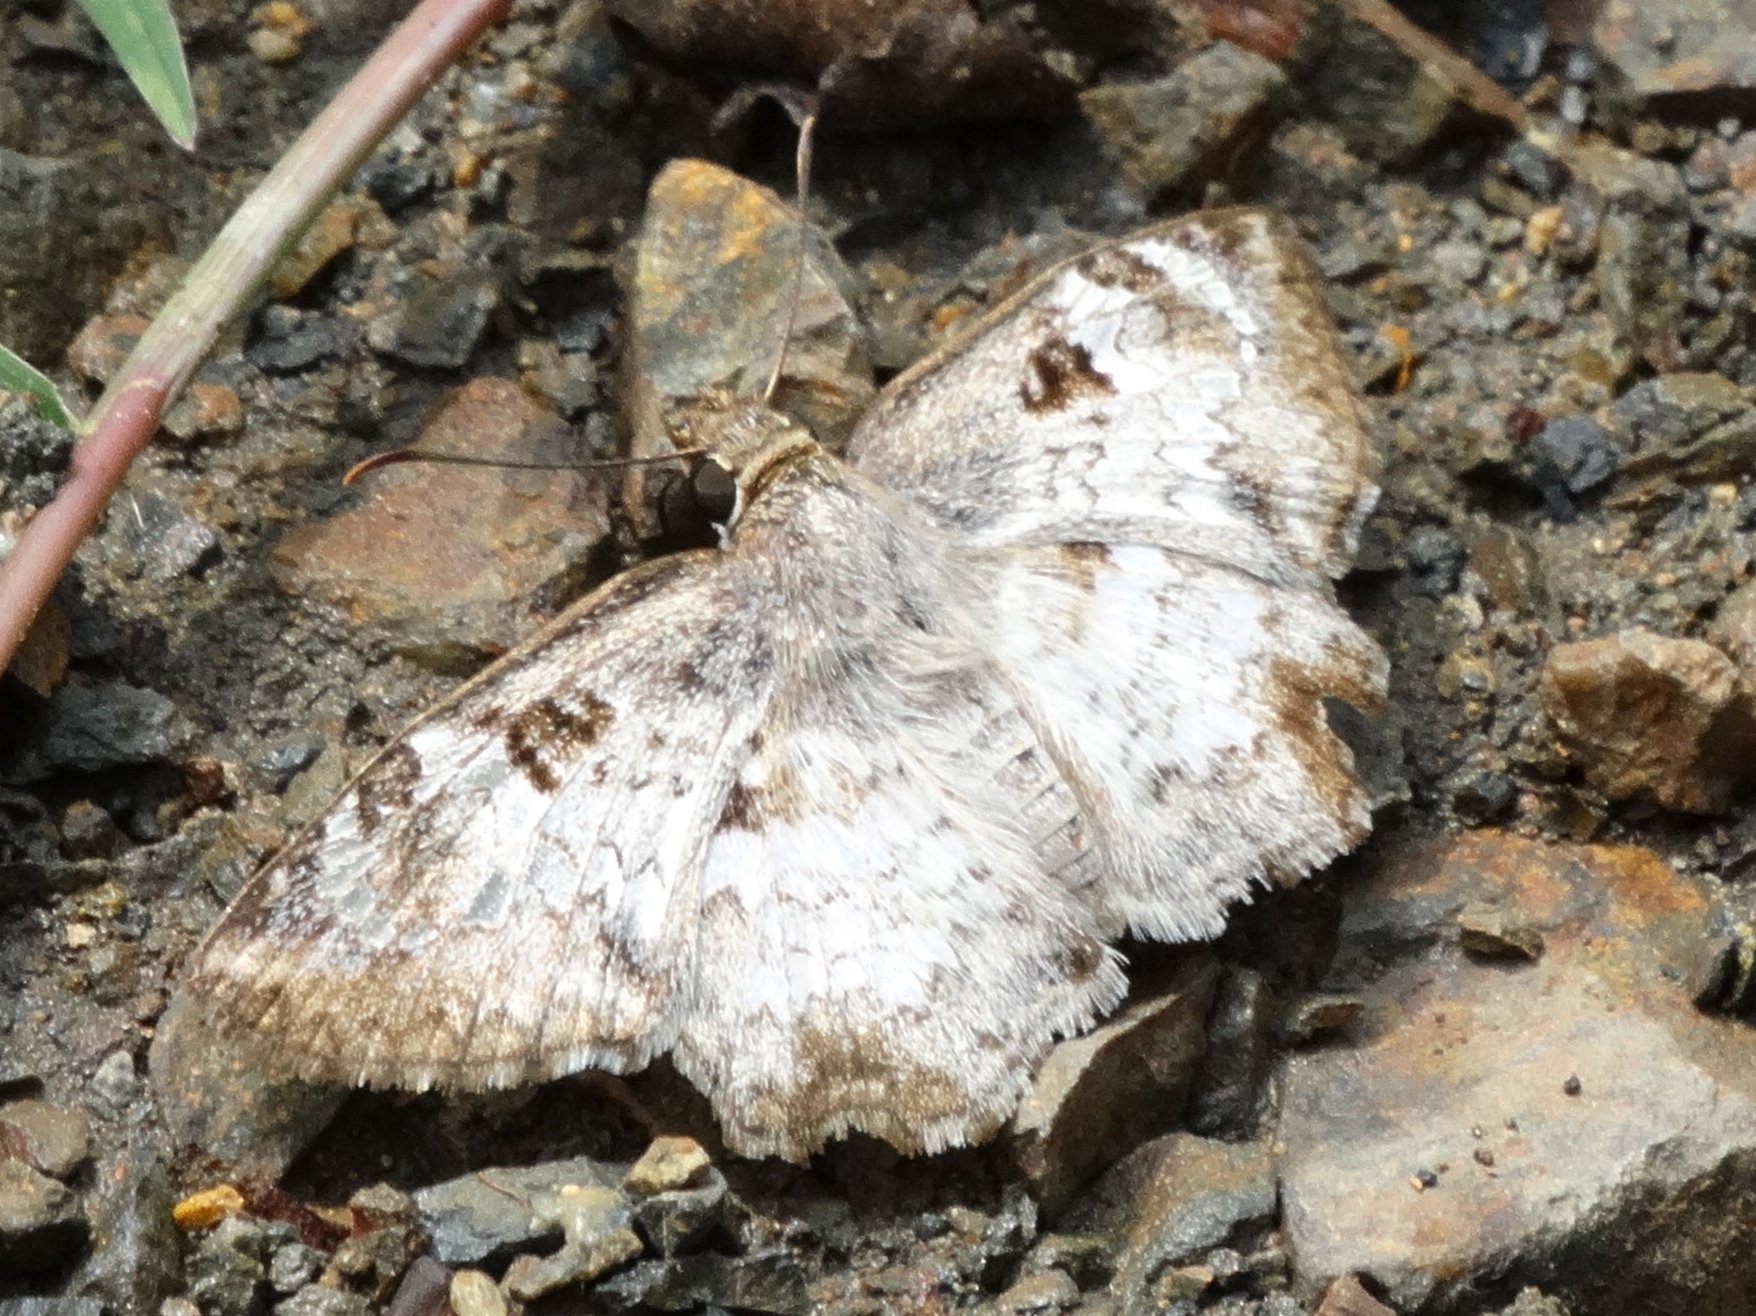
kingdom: Animalia
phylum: Arthropoda
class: Insecta
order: Lepidoptera
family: Hesperiidae
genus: Antigonus
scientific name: Antigonus emorsa
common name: White spurwing
